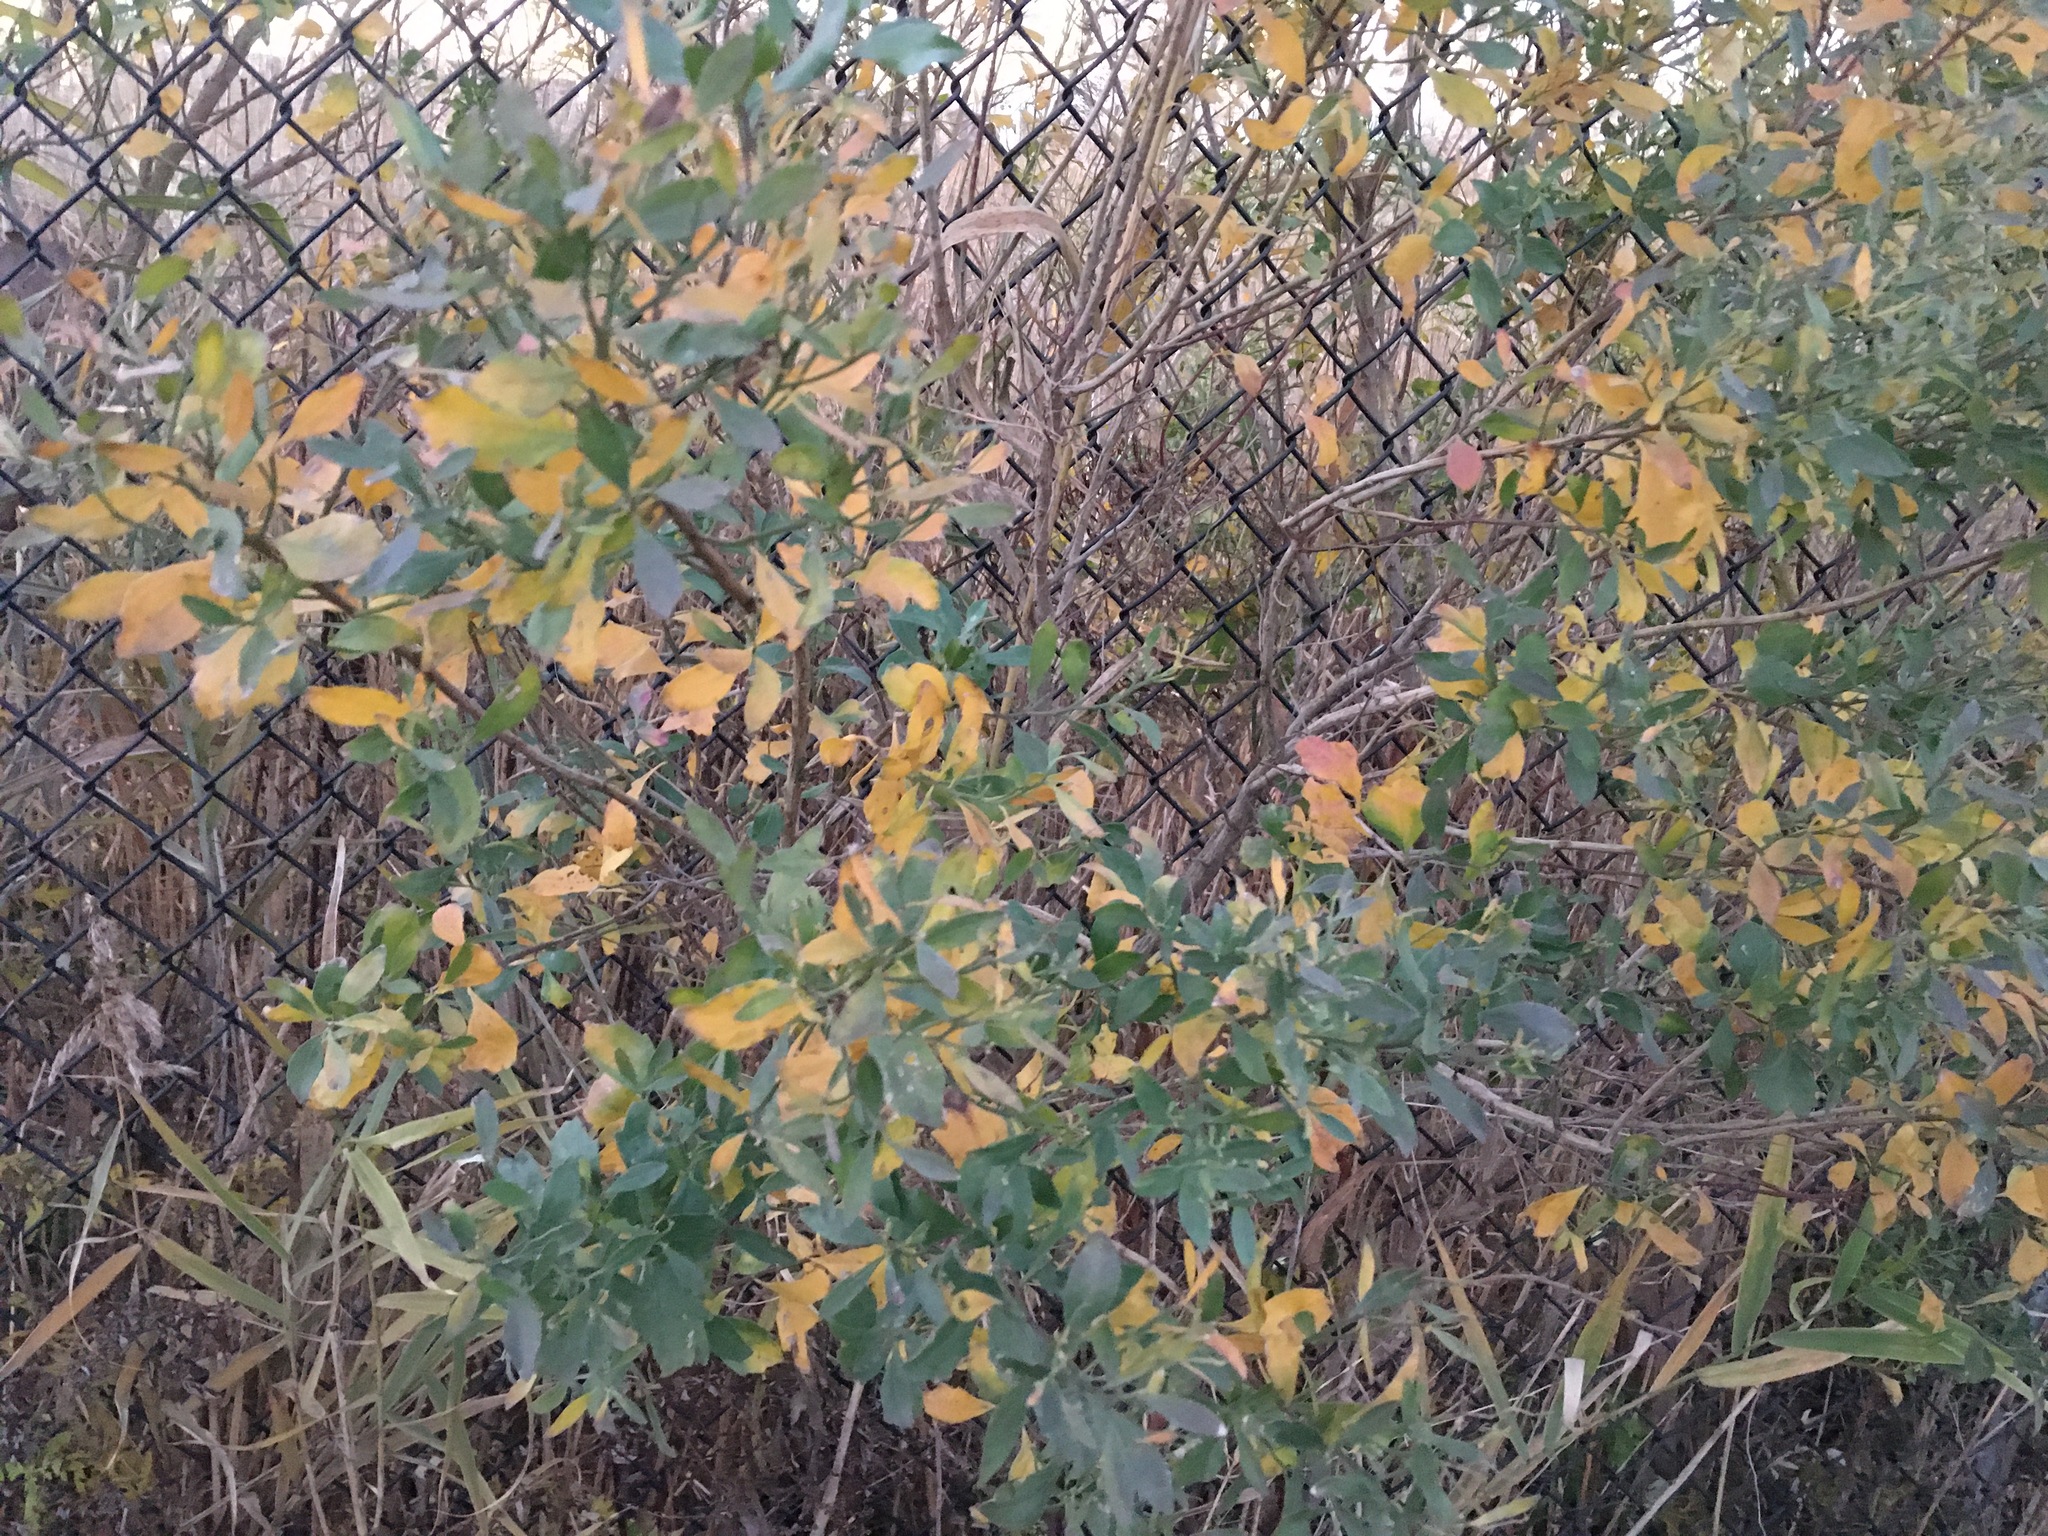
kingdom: Plantae
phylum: Tracheophyta
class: Magnoliopsida
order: Asterales
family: Asteraceae
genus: Baccharis
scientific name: Baccharis halimifolia
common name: Eastern baccharis
